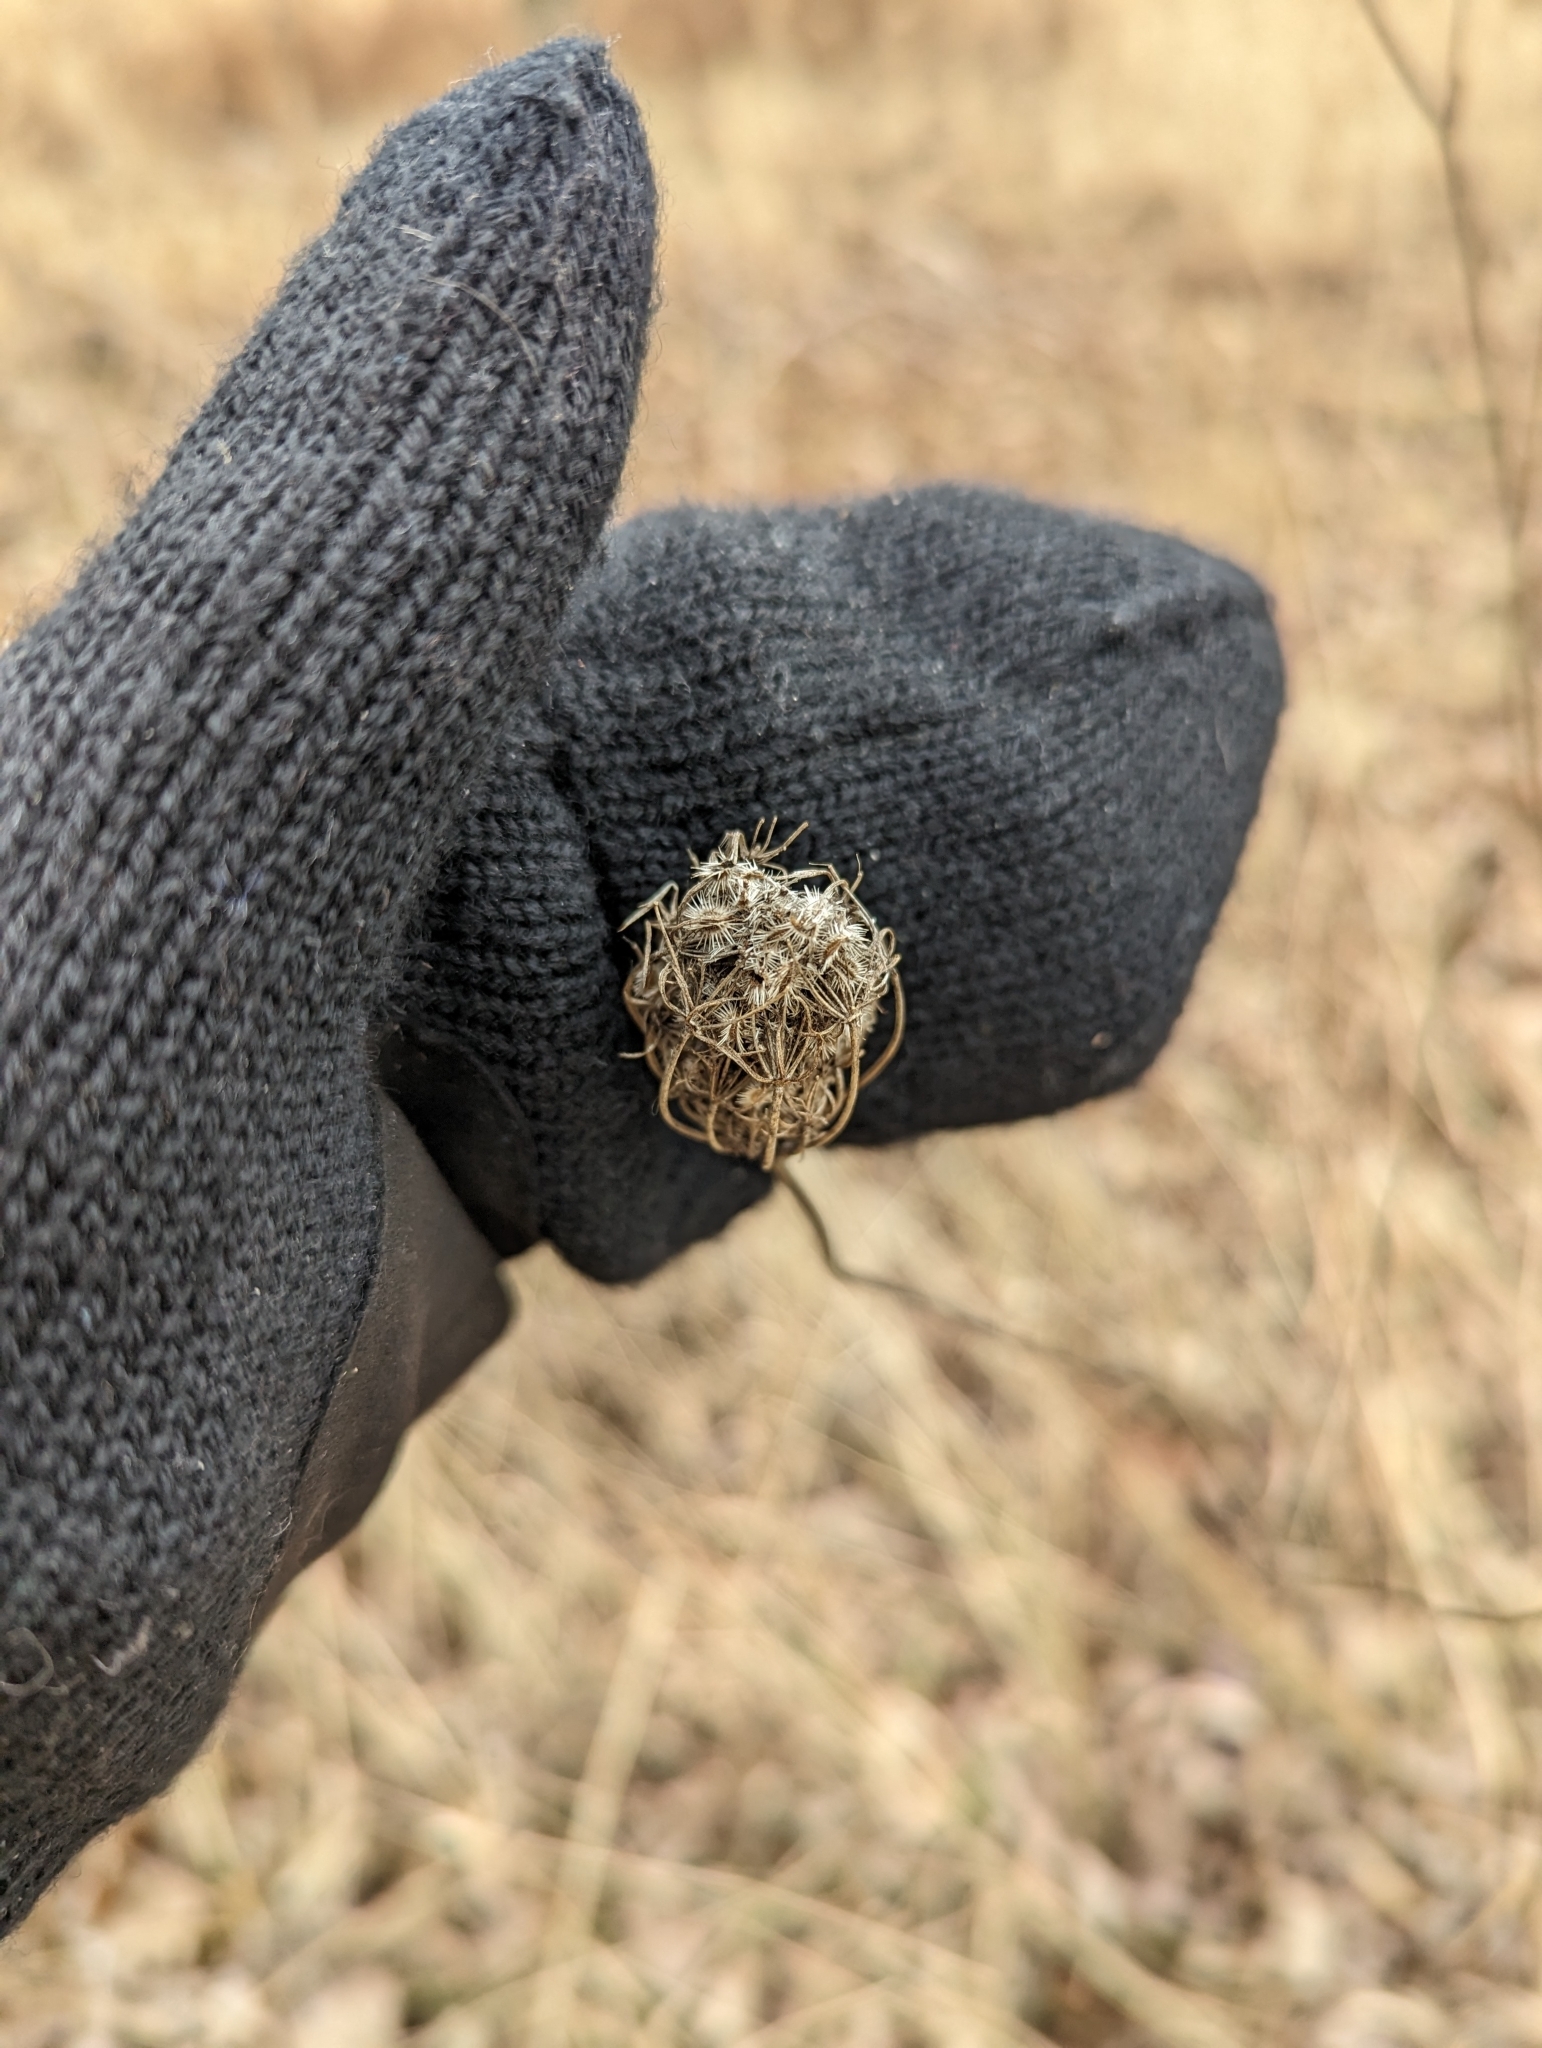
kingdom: Plantae
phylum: Tracheophyta
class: Magnoliopsida
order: Apiales
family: Apiaceae
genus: Daucus
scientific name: Daucus carota
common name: Wild carrot
